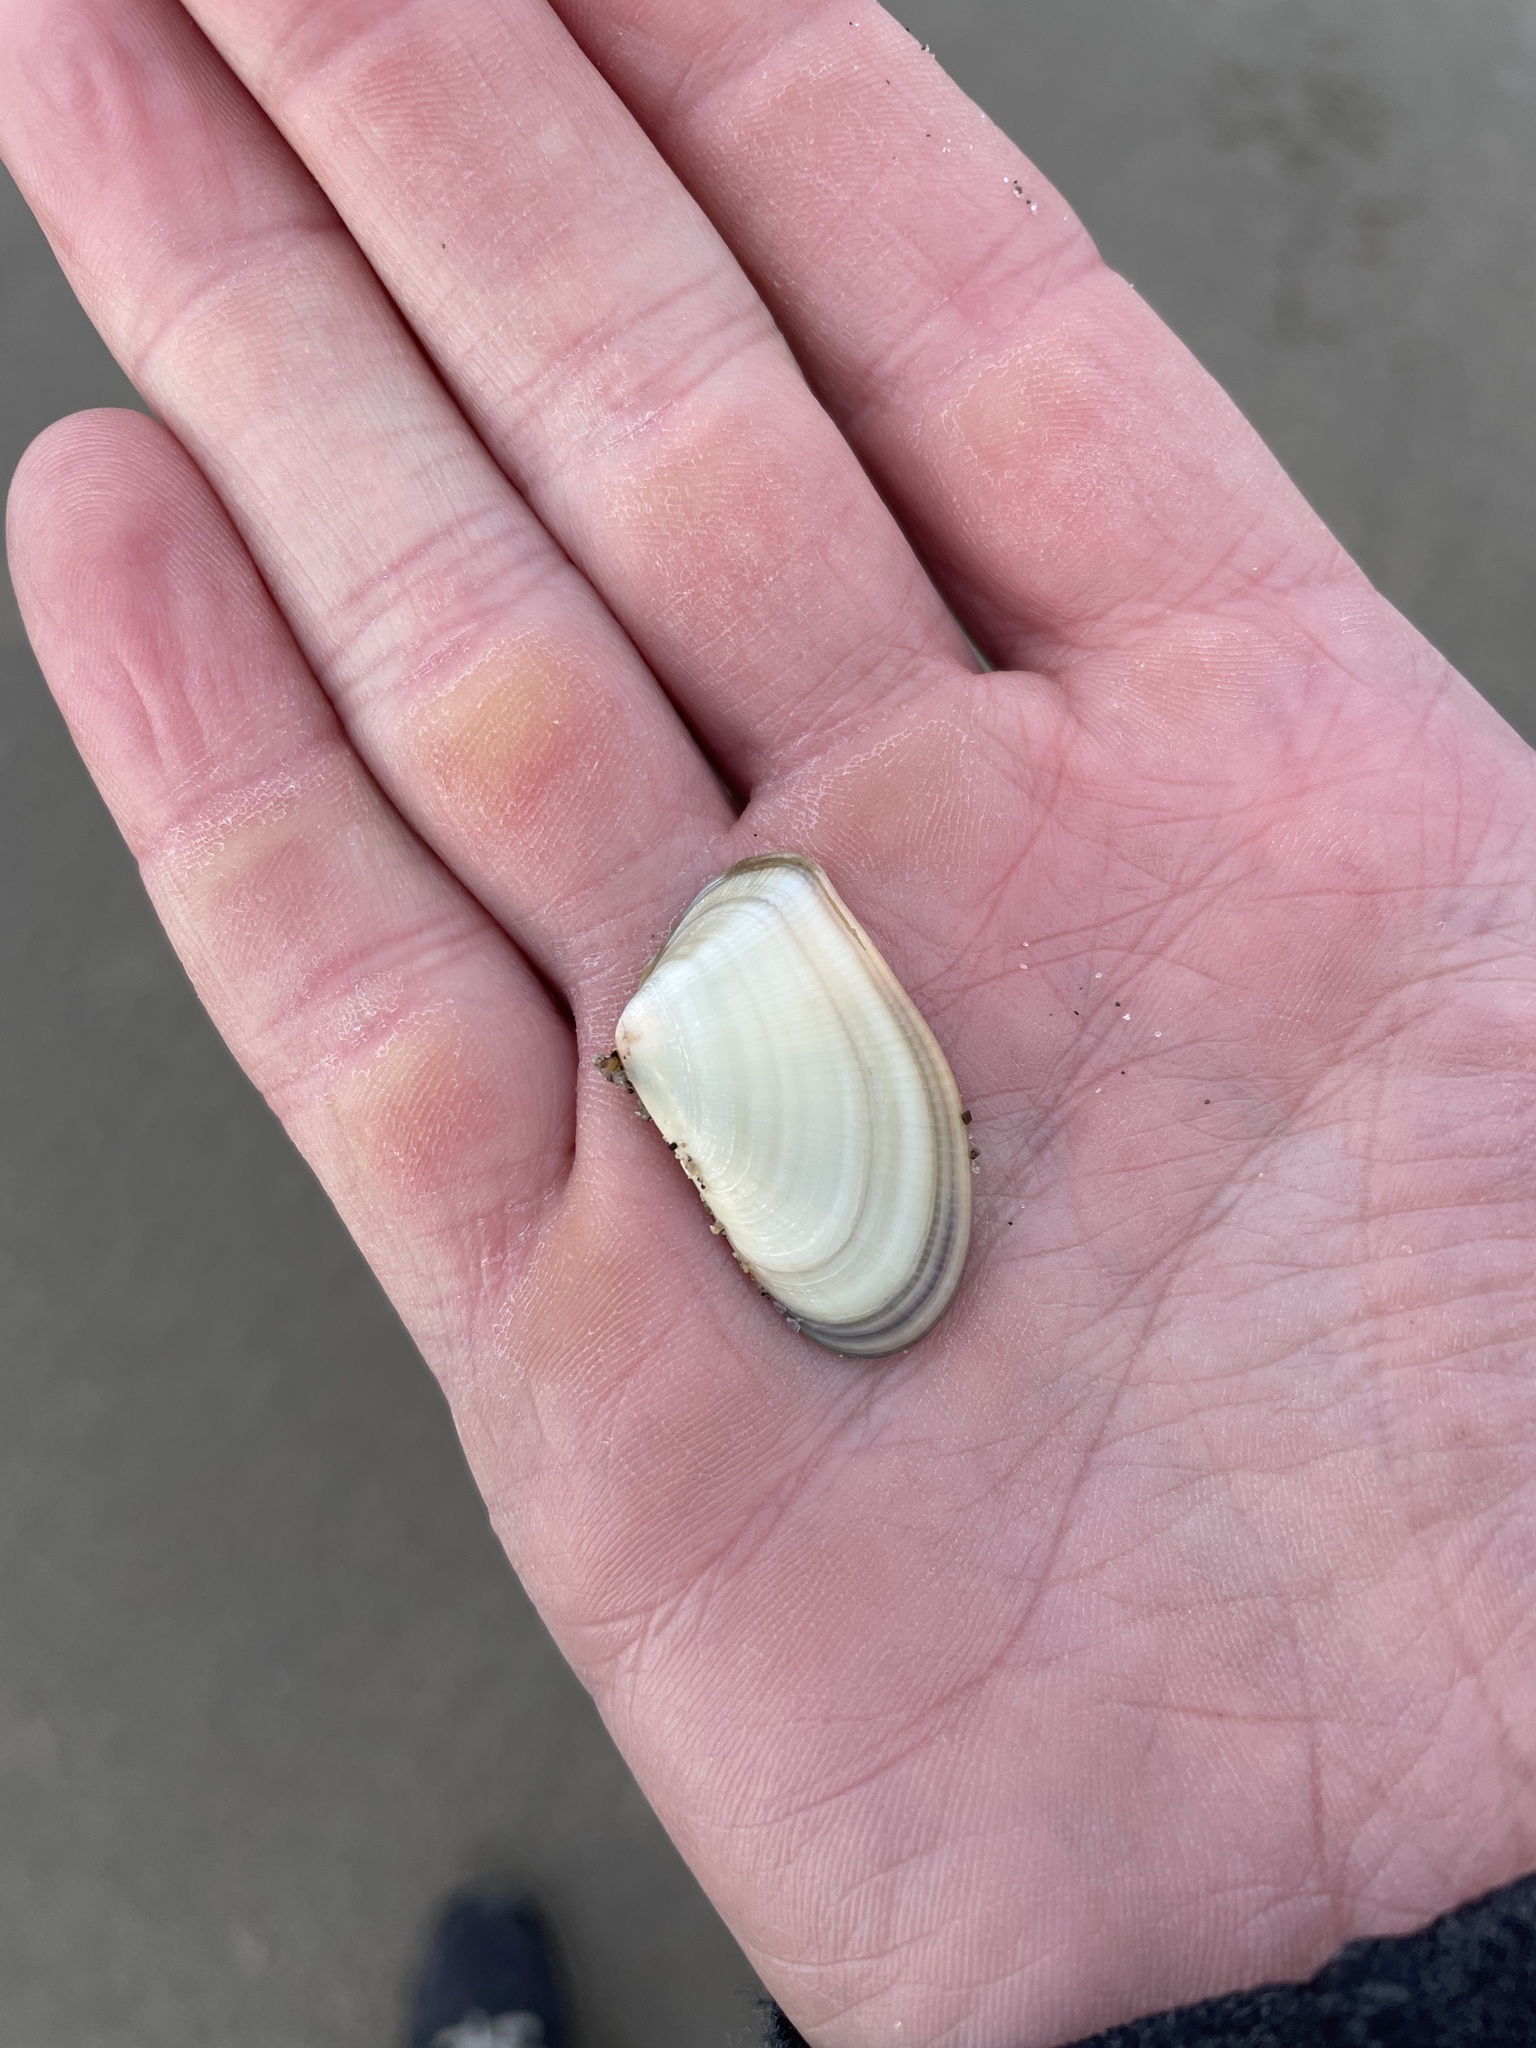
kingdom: Animalia
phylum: Mollusca
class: Bivalvia
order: Cardiida
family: Donacidae
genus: Donax
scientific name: Donax gouldii
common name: Gould beanclam
